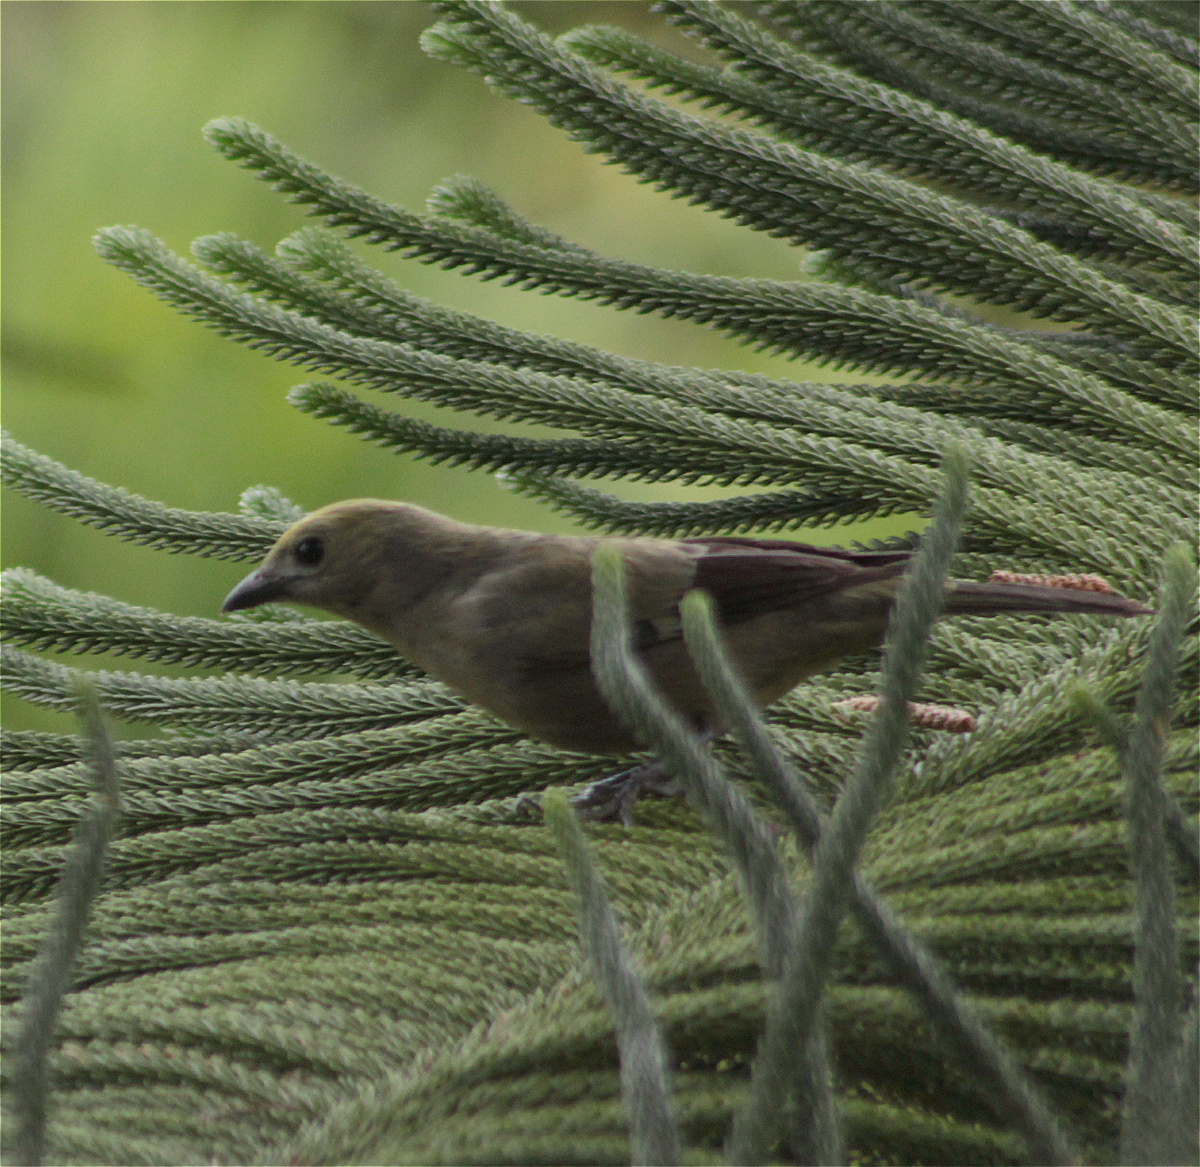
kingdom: Animalia
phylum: Chordata
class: Aves
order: Passeriformes
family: Thraupidae
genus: Thraupis
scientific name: Thraupis palmarum
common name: Palm tanager
